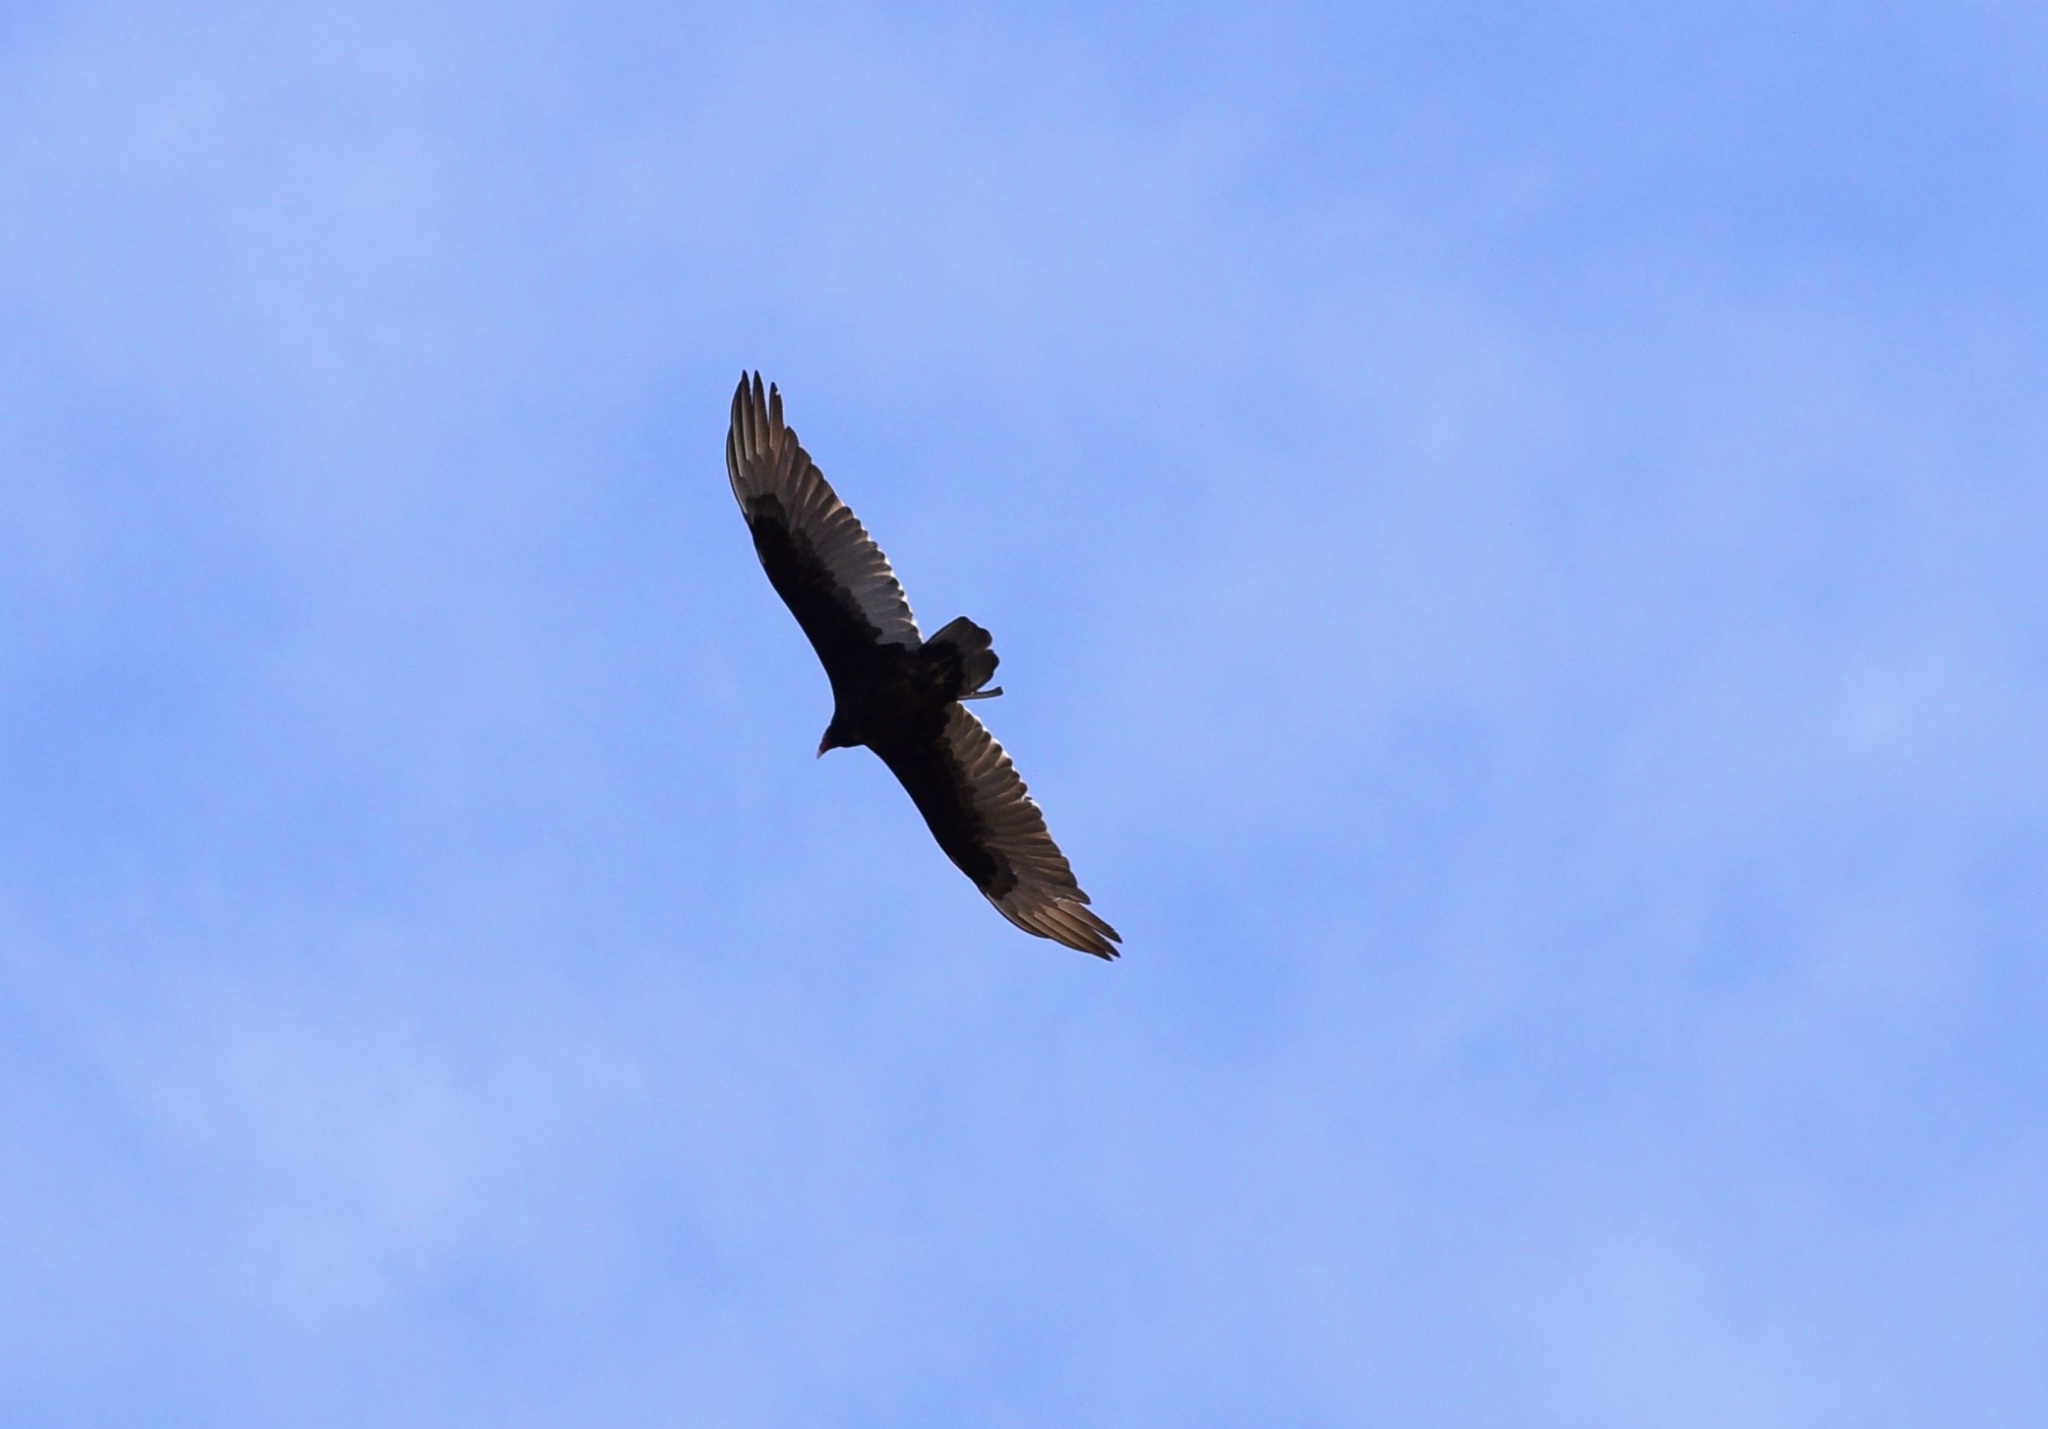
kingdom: Animalia
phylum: Chordata
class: Aves
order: Accipitriformes
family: Cathartidae
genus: Cathartes
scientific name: Cathartes aura
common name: Turkey vulture
